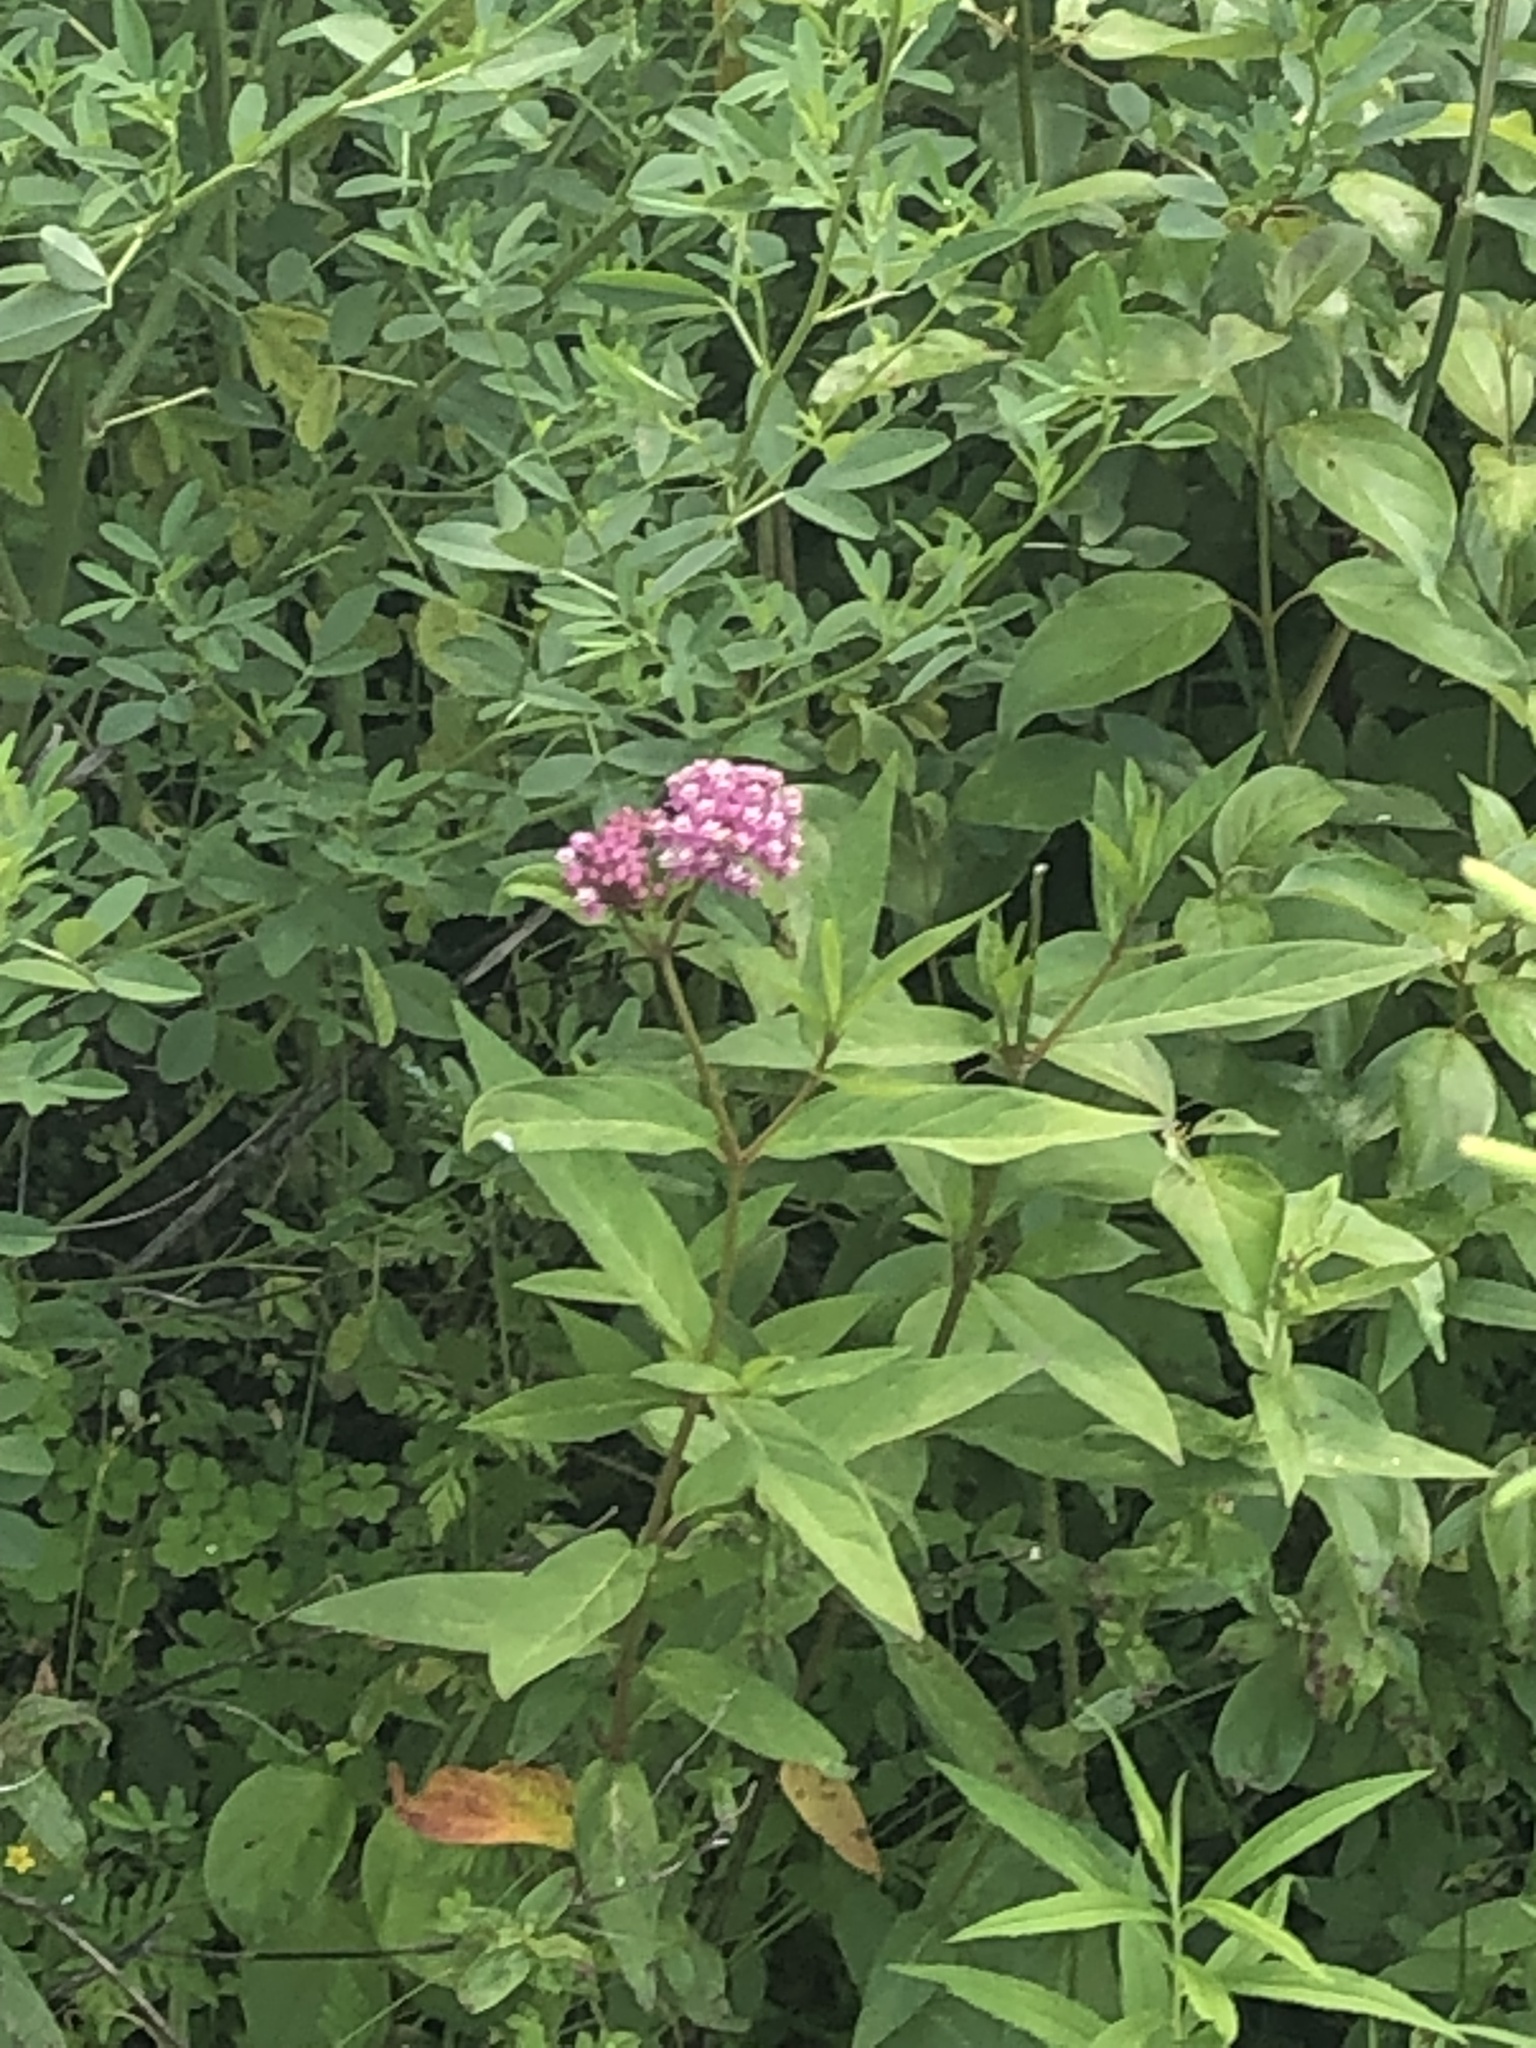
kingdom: Plantae
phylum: Tracheophyta
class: Magnoliopsida
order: Gentianales
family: Apocynaceae
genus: Asclepias
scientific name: Asclepias incarnata
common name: Swamp milkweed
